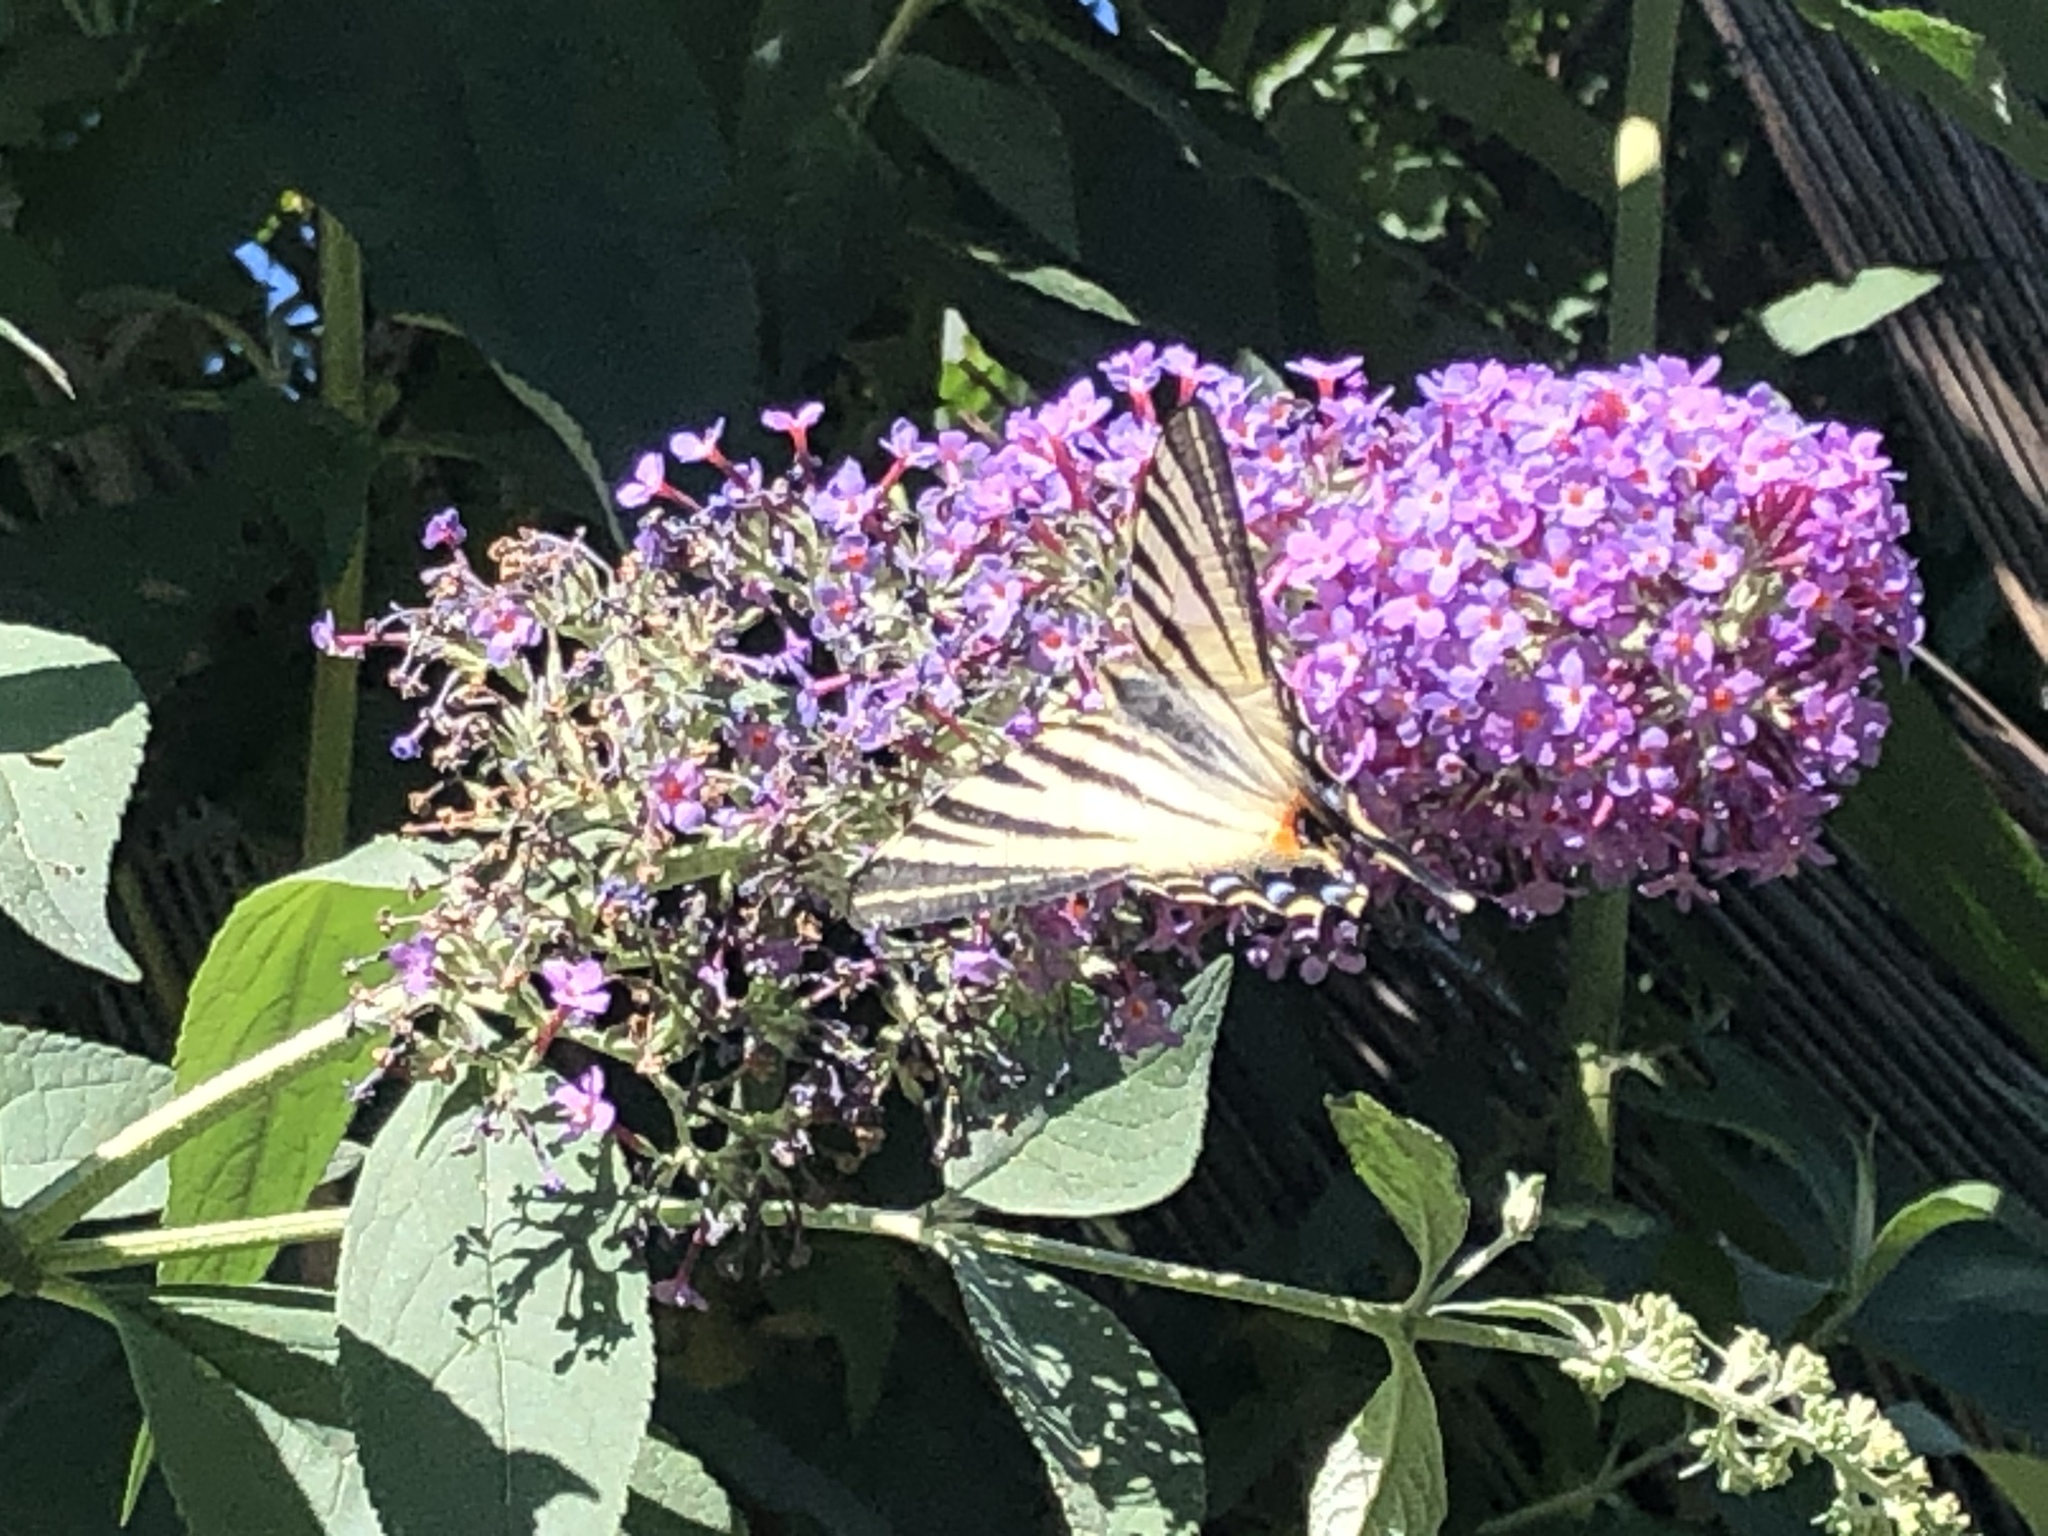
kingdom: Animalia
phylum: Arthropoda
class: Insecta
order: Lepidoptera
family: Papilionidae
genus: Iphiclides
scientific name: Iphiclides podalirius
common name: Scarce swallowtail
